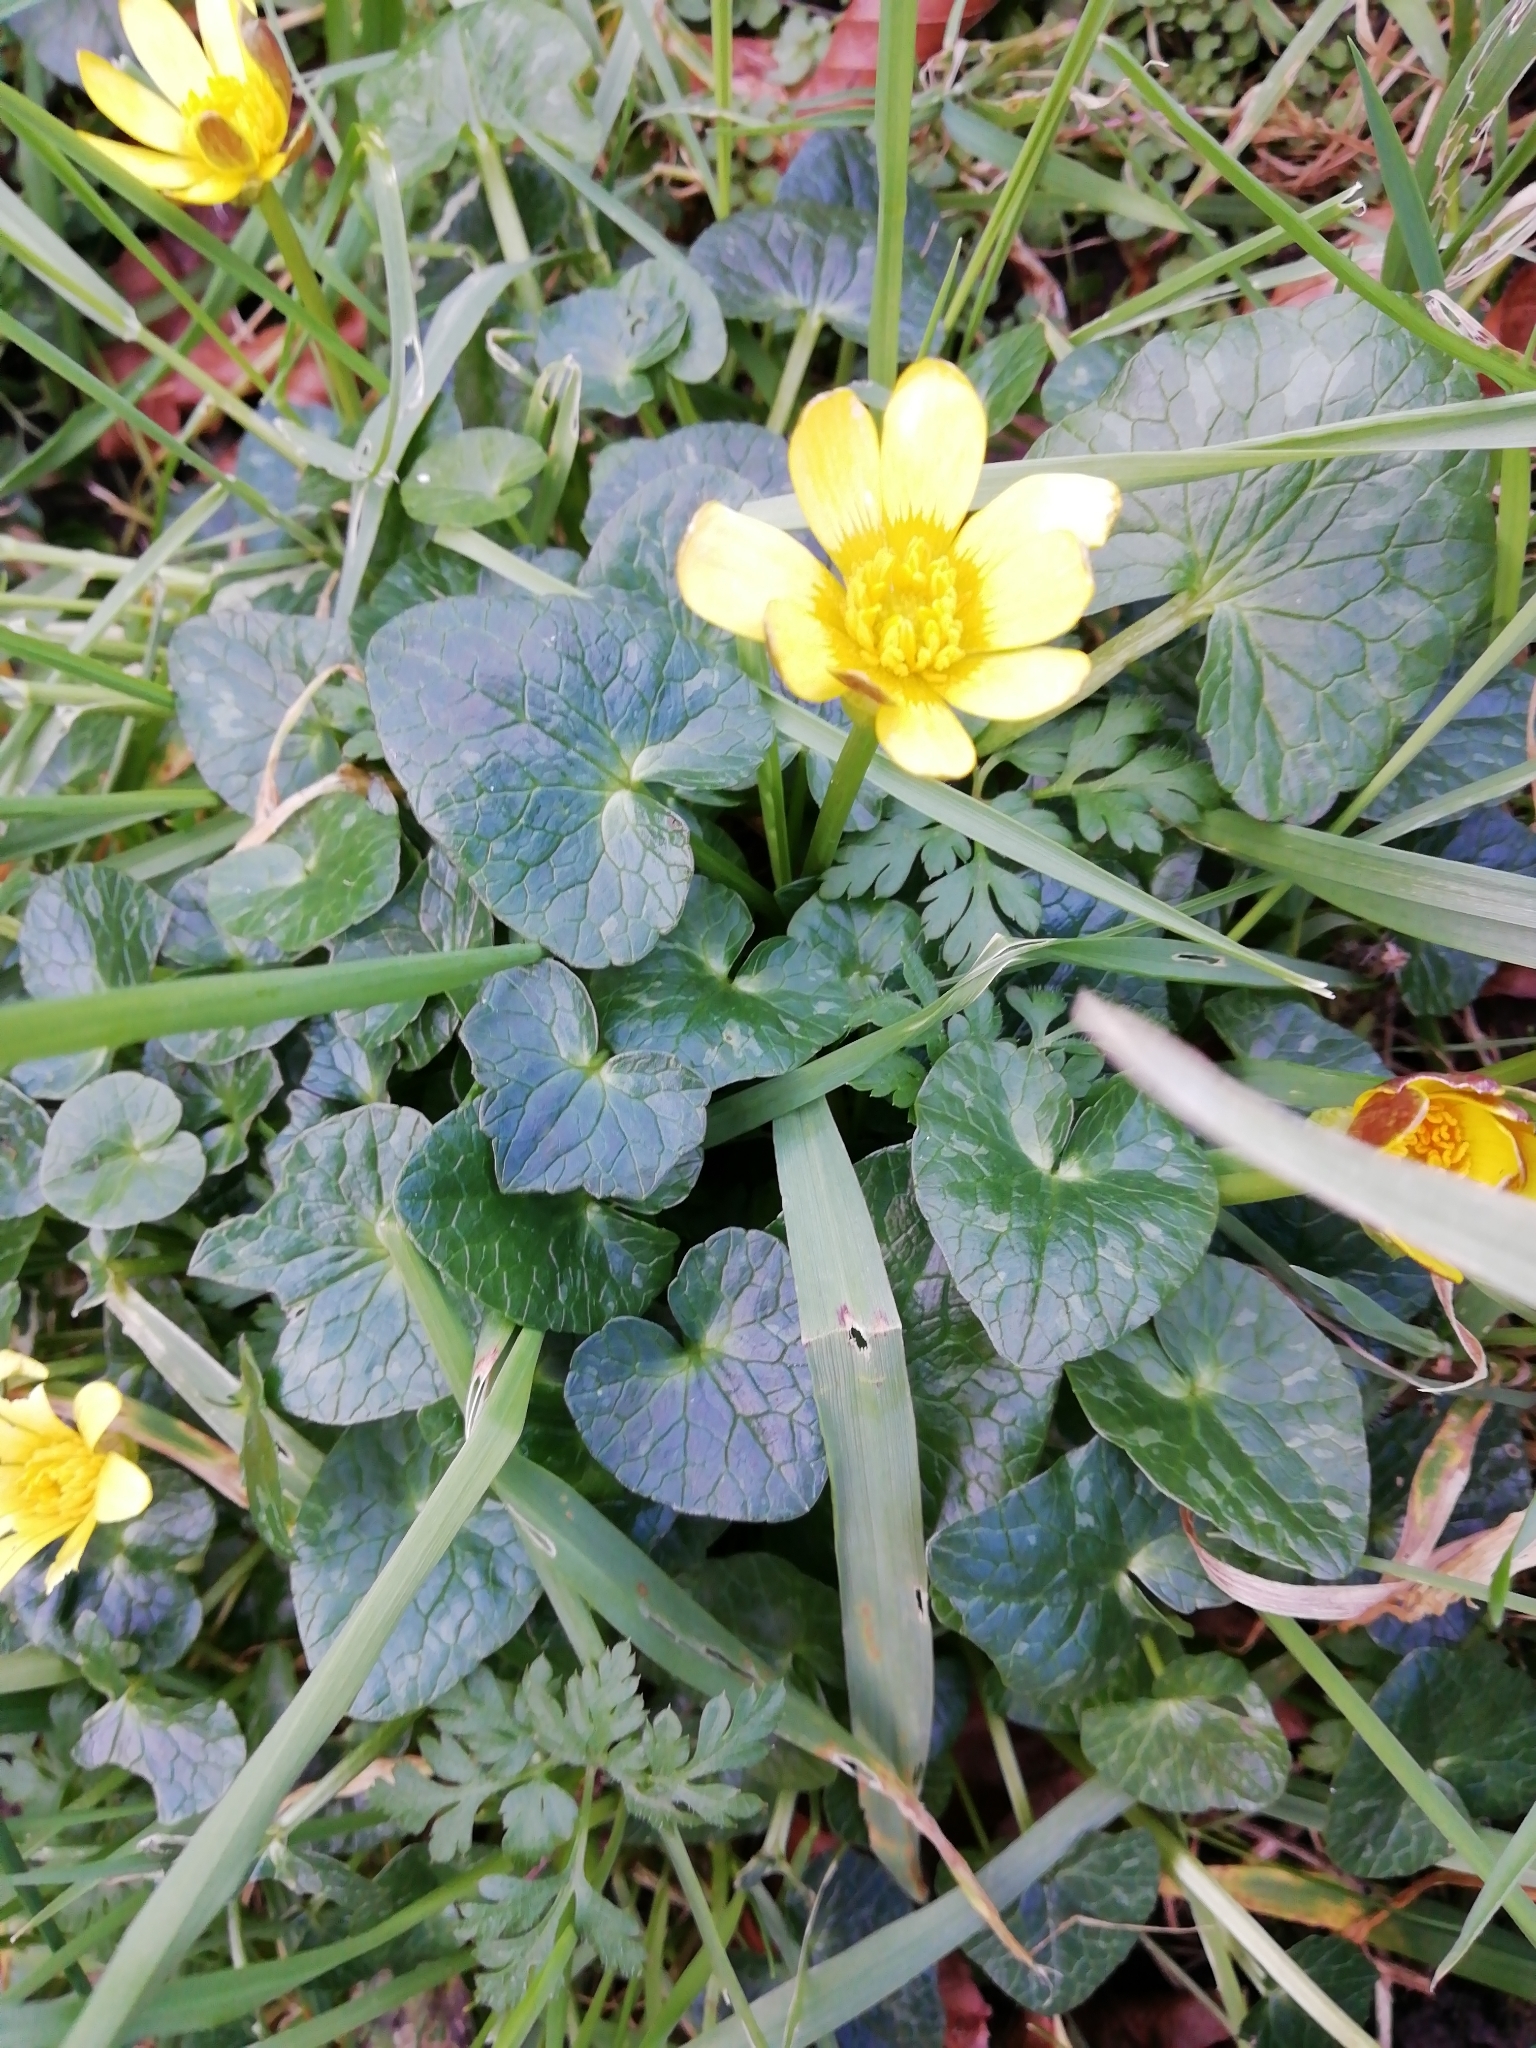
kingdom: Plantae
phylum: Tracheophyta
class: Magnoliopsida
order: Ranunculales
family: Ranunculaceae
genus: Ficaria
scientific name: Ficaria verna
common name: Lesser celandine
